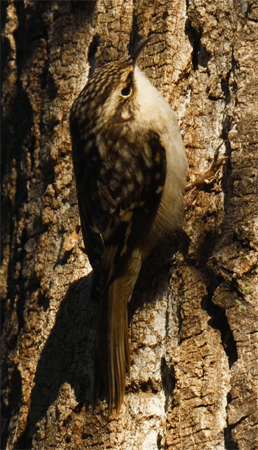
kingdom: Animalia
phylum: Chordata
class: Aves
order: Passeriformes
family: Certhiidae
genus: Certhia
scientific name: Certhia americana
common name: Brown creeper
